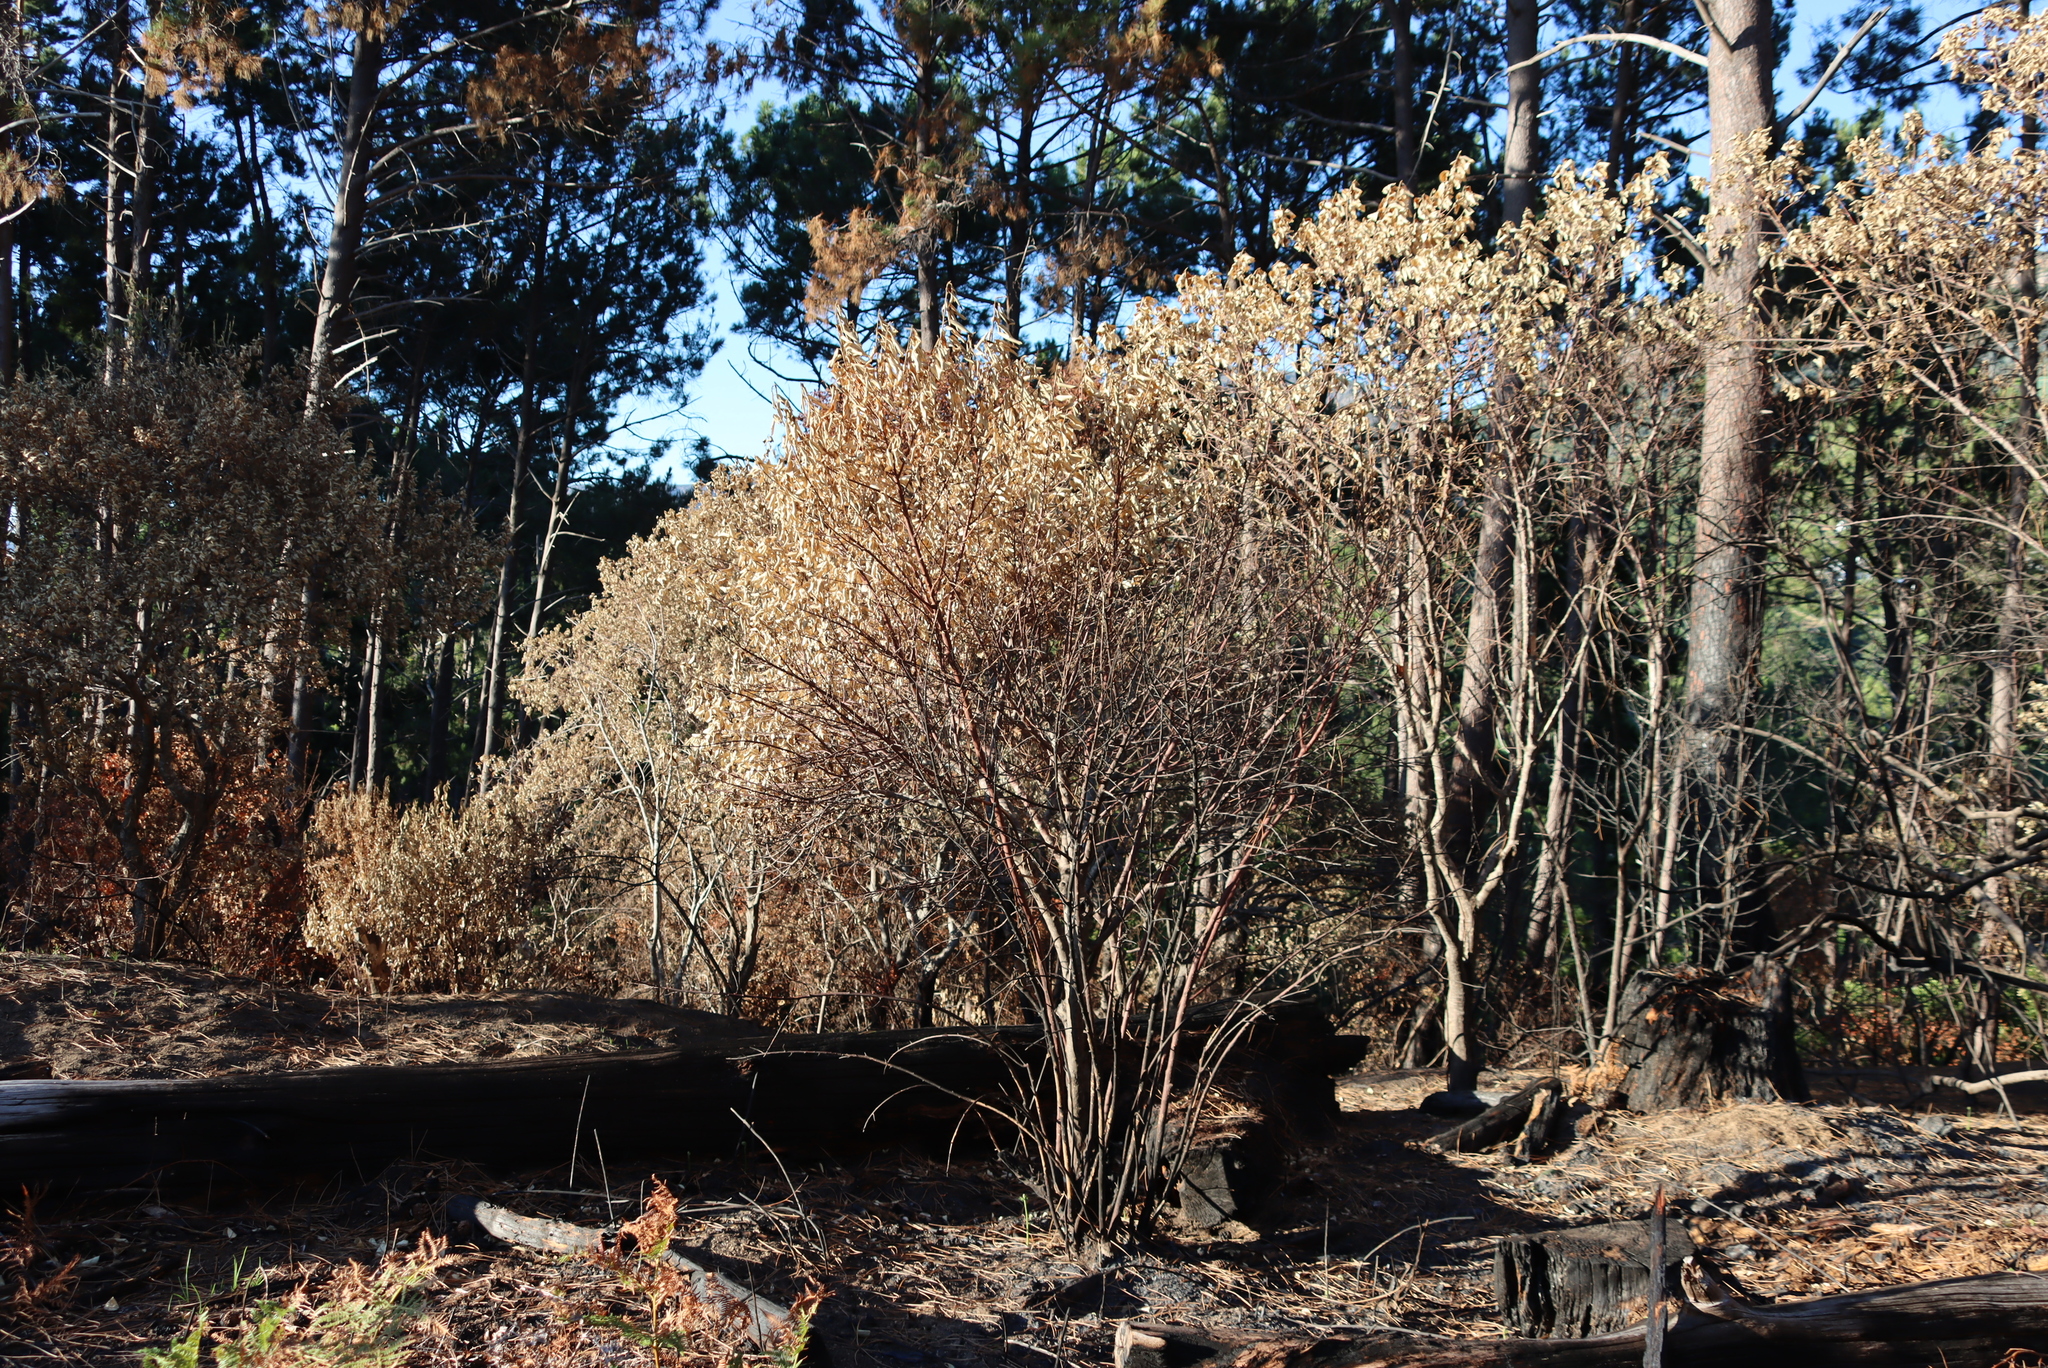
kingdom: Plantae
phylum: Tracheophyta
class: Magnoliopsida
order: Malpighiales
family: Achariaceae
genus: Kiggelaria
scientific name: Kiggelaria africana
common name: Wild peach
